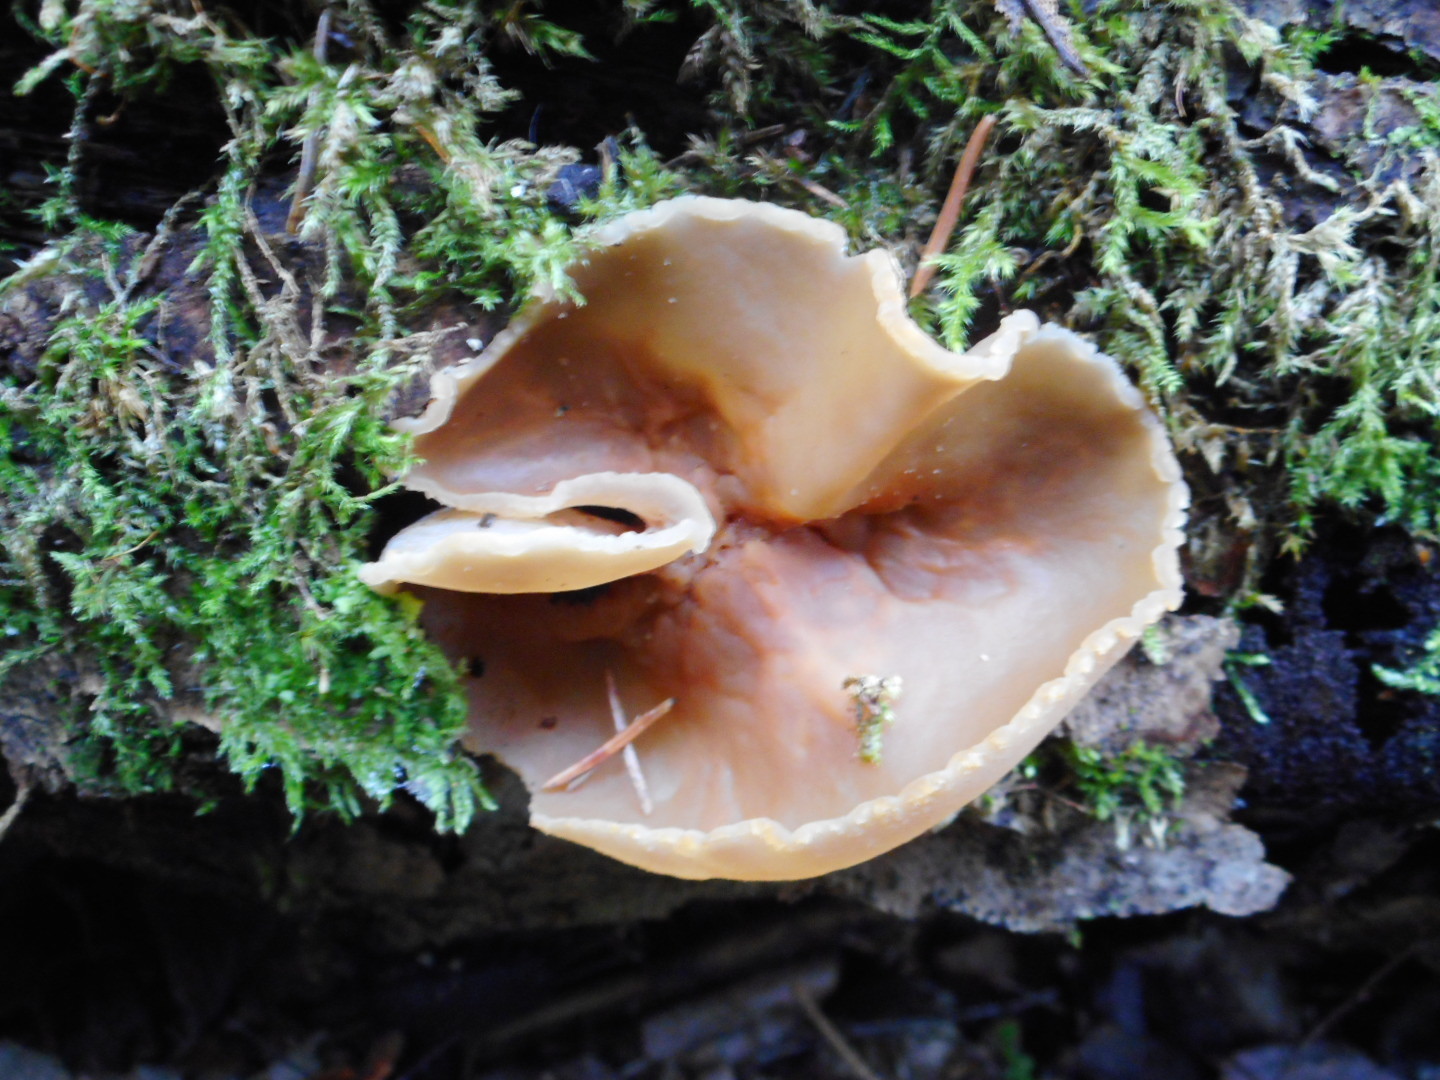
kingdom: Fungi
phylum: Ascomycota
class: Pezizomycetes
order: Pezizales
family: Pezizaceae
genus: Peziza
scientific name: Peziza varia
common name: Layered cup
